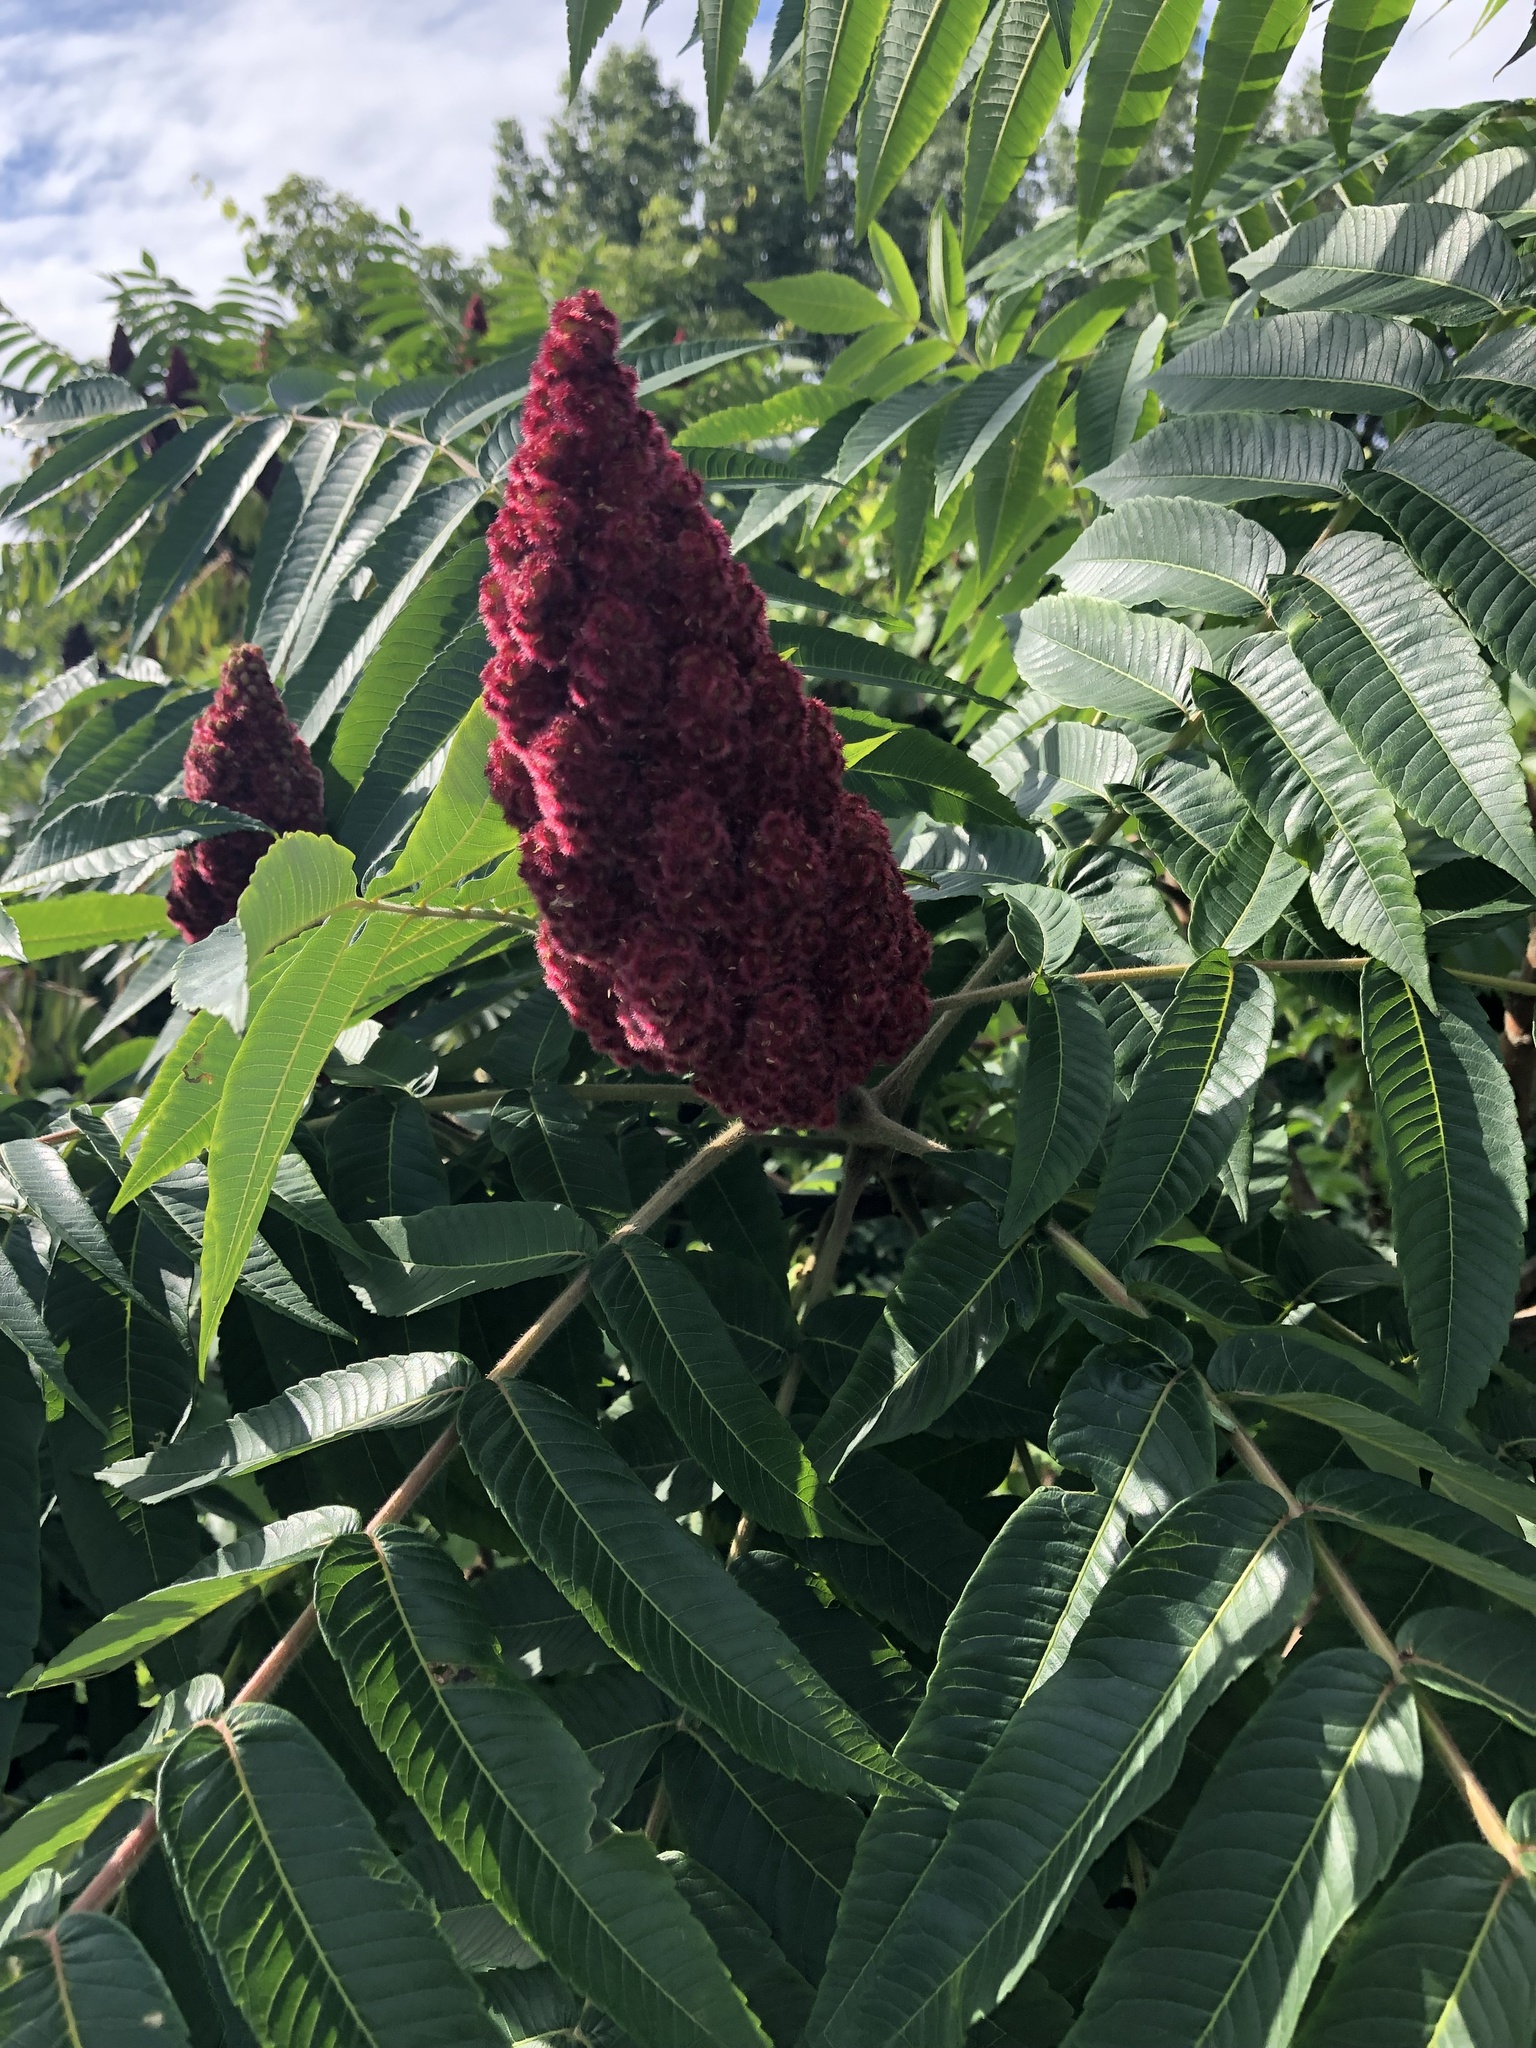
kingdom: Plantae
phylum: Tracheophyta
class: Magnoliopsida
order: Sapindales
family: Anacardiaceae
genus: Rhus
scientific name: Rhus typhina
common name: Staghorn sumac
